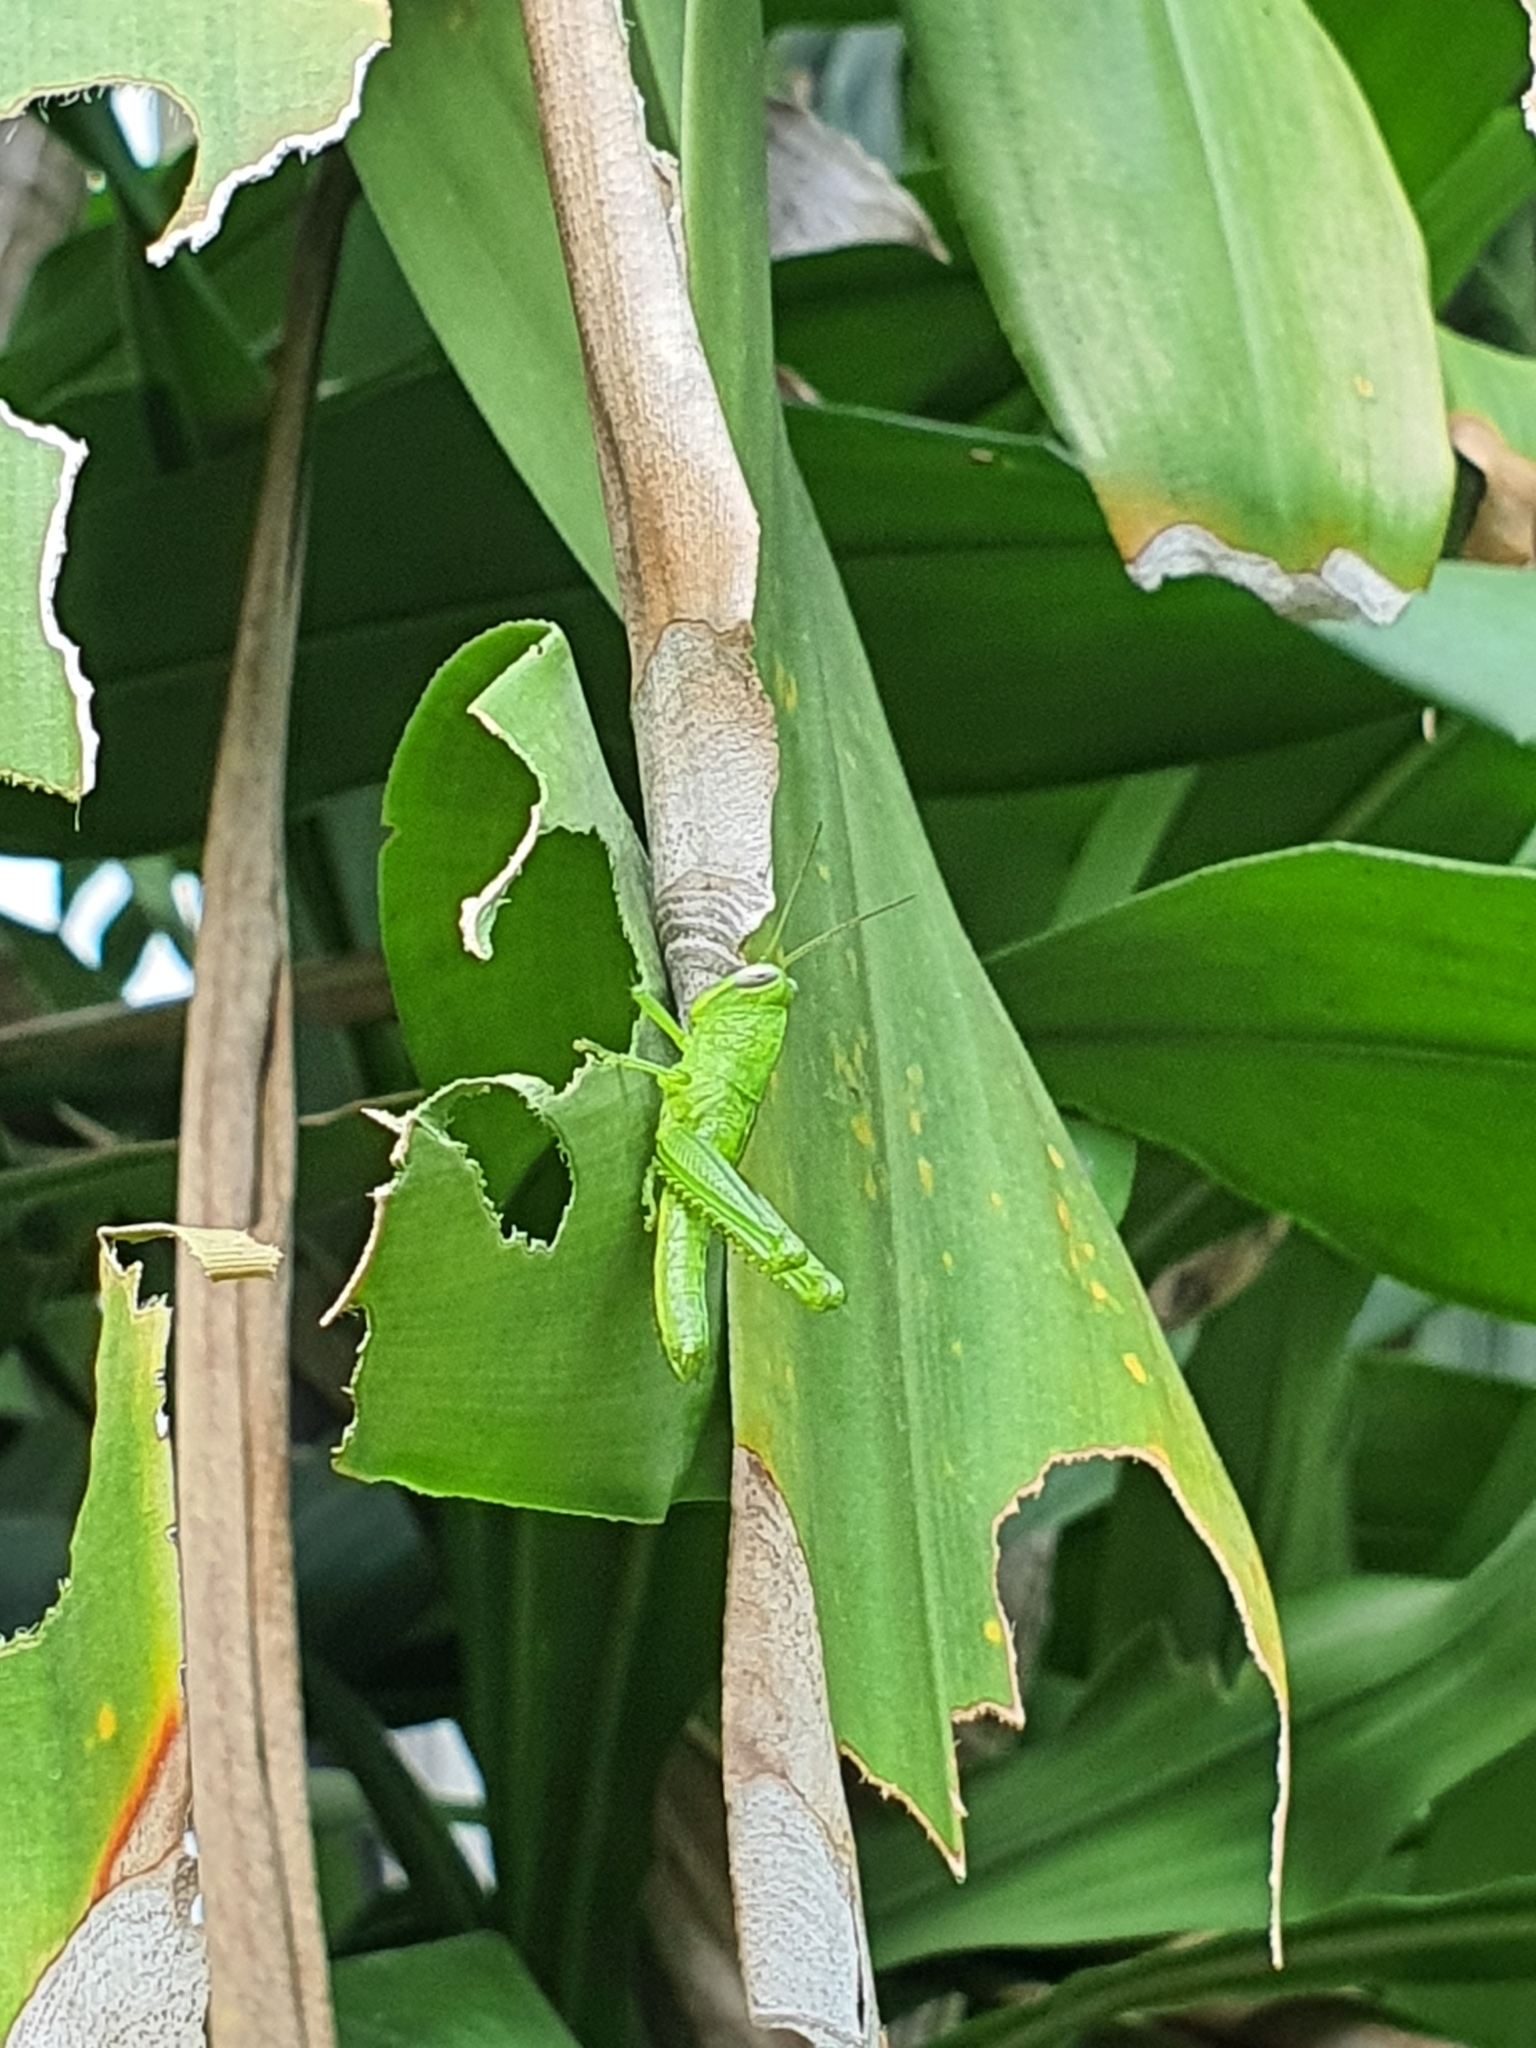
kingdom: Animalia
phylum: Arthropoda
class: Insecta
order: Orthoptera
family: Acrididae
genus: Valanga
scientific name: Valanga nigricornis
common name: Javanese bird grasshopper
